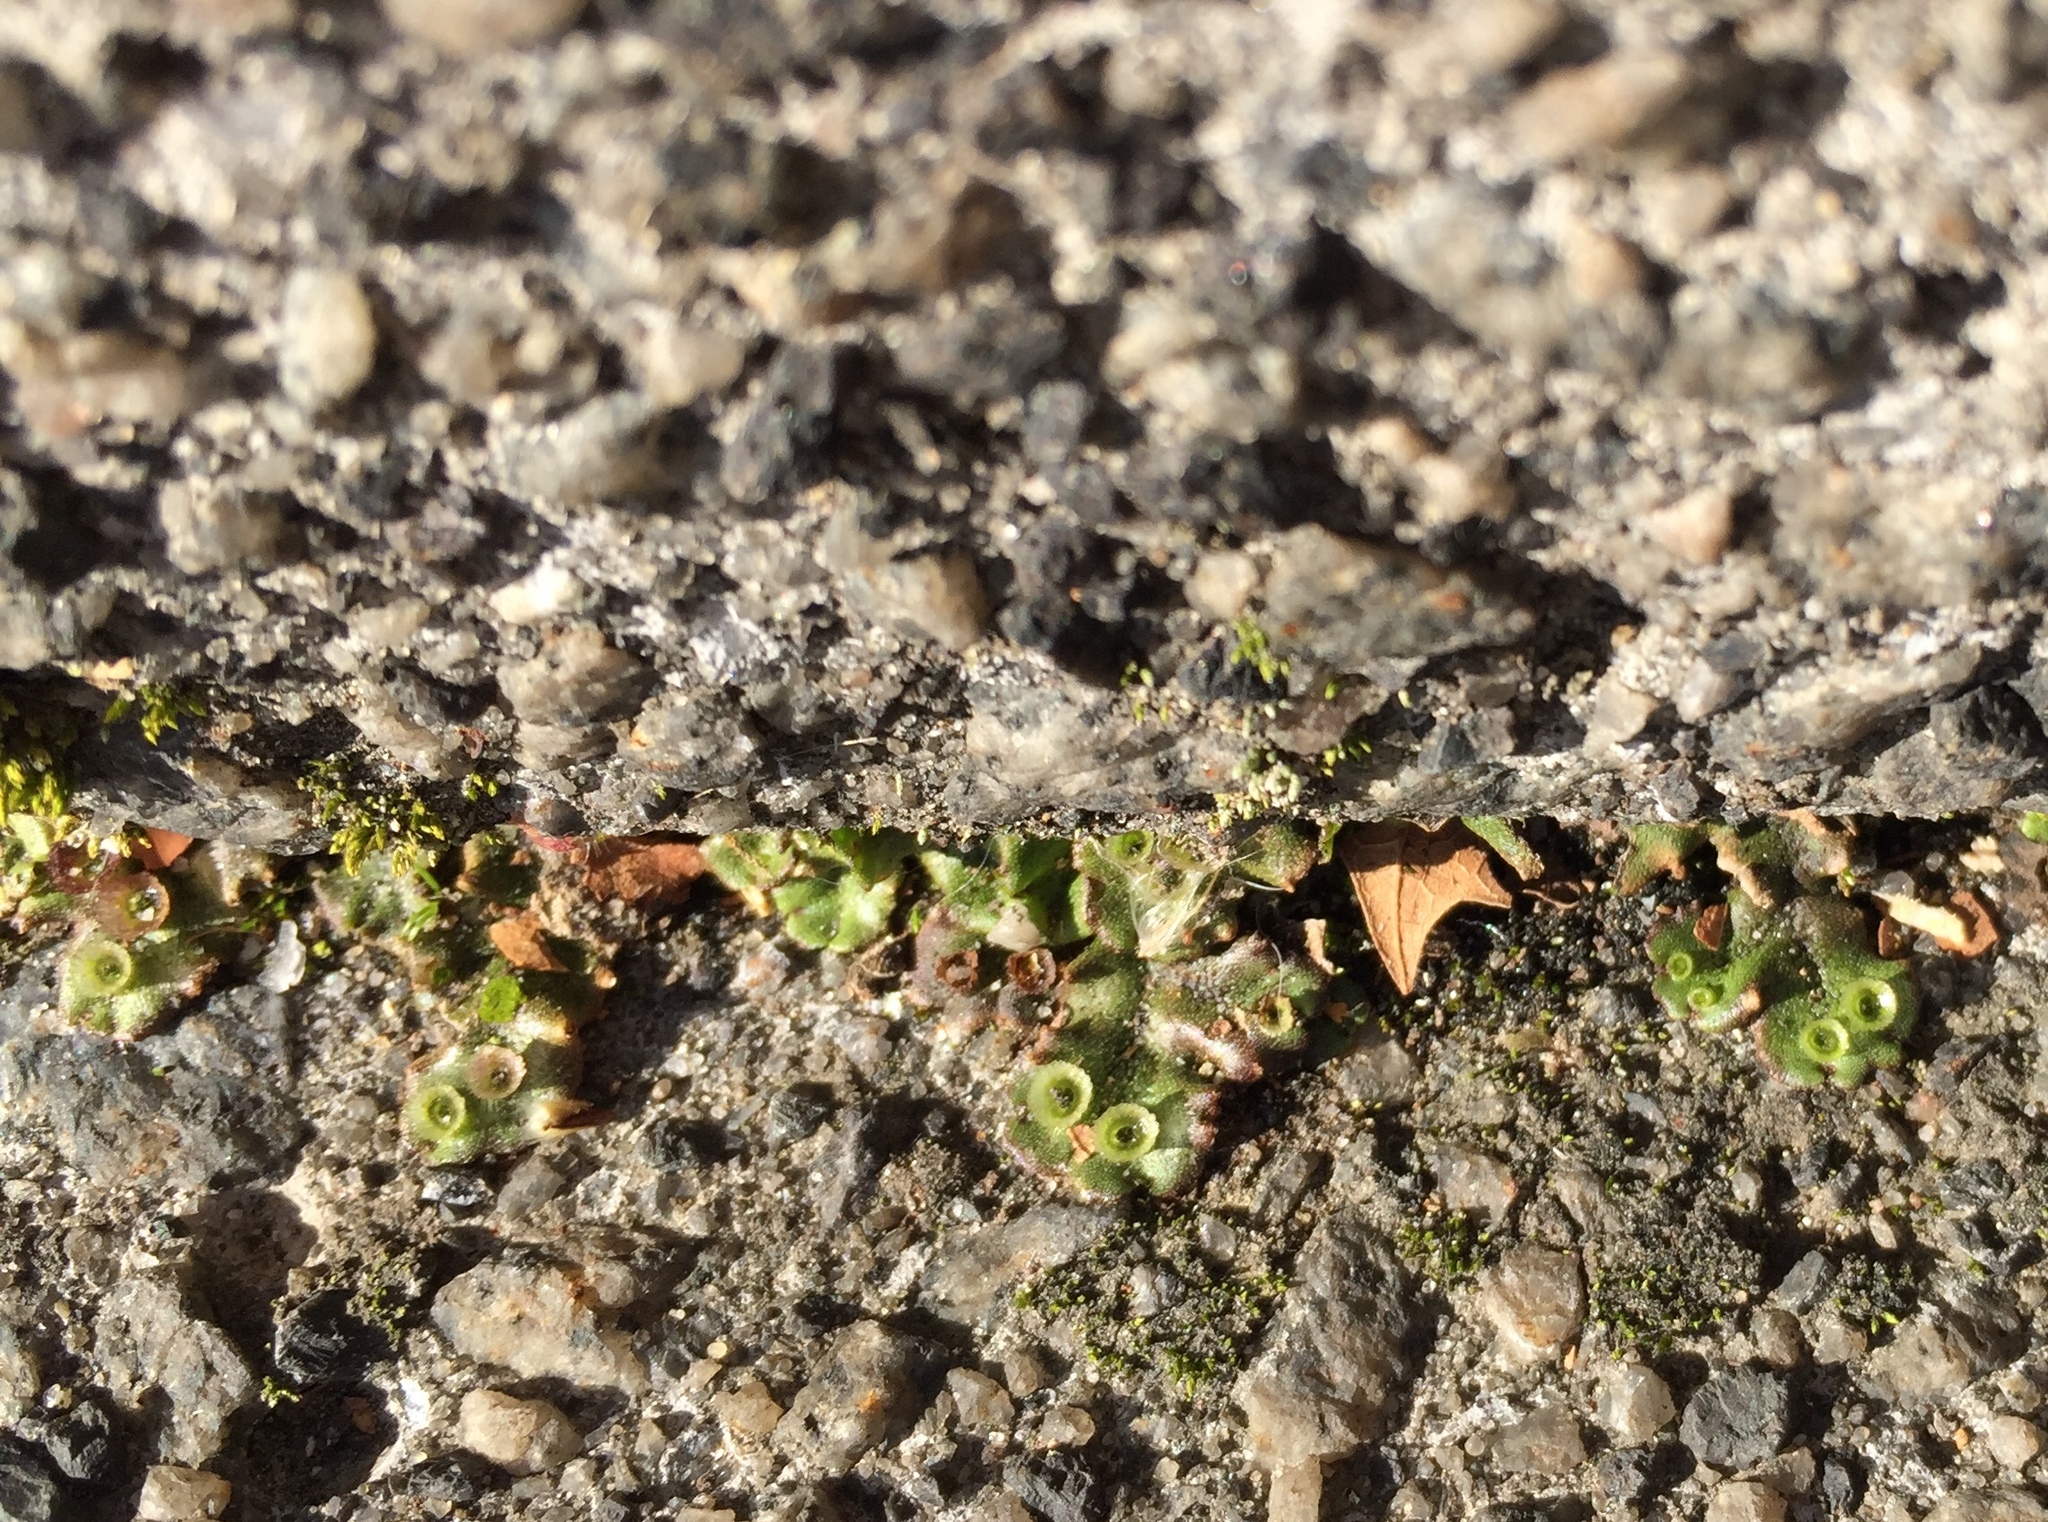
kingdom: Plantae
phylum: Marchantiophyta
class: Marchantiopsida
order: Marchantiales
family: Marchantiaceae
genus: Marchantia
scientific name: Marchantia polymorpha
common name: Common liverwort
